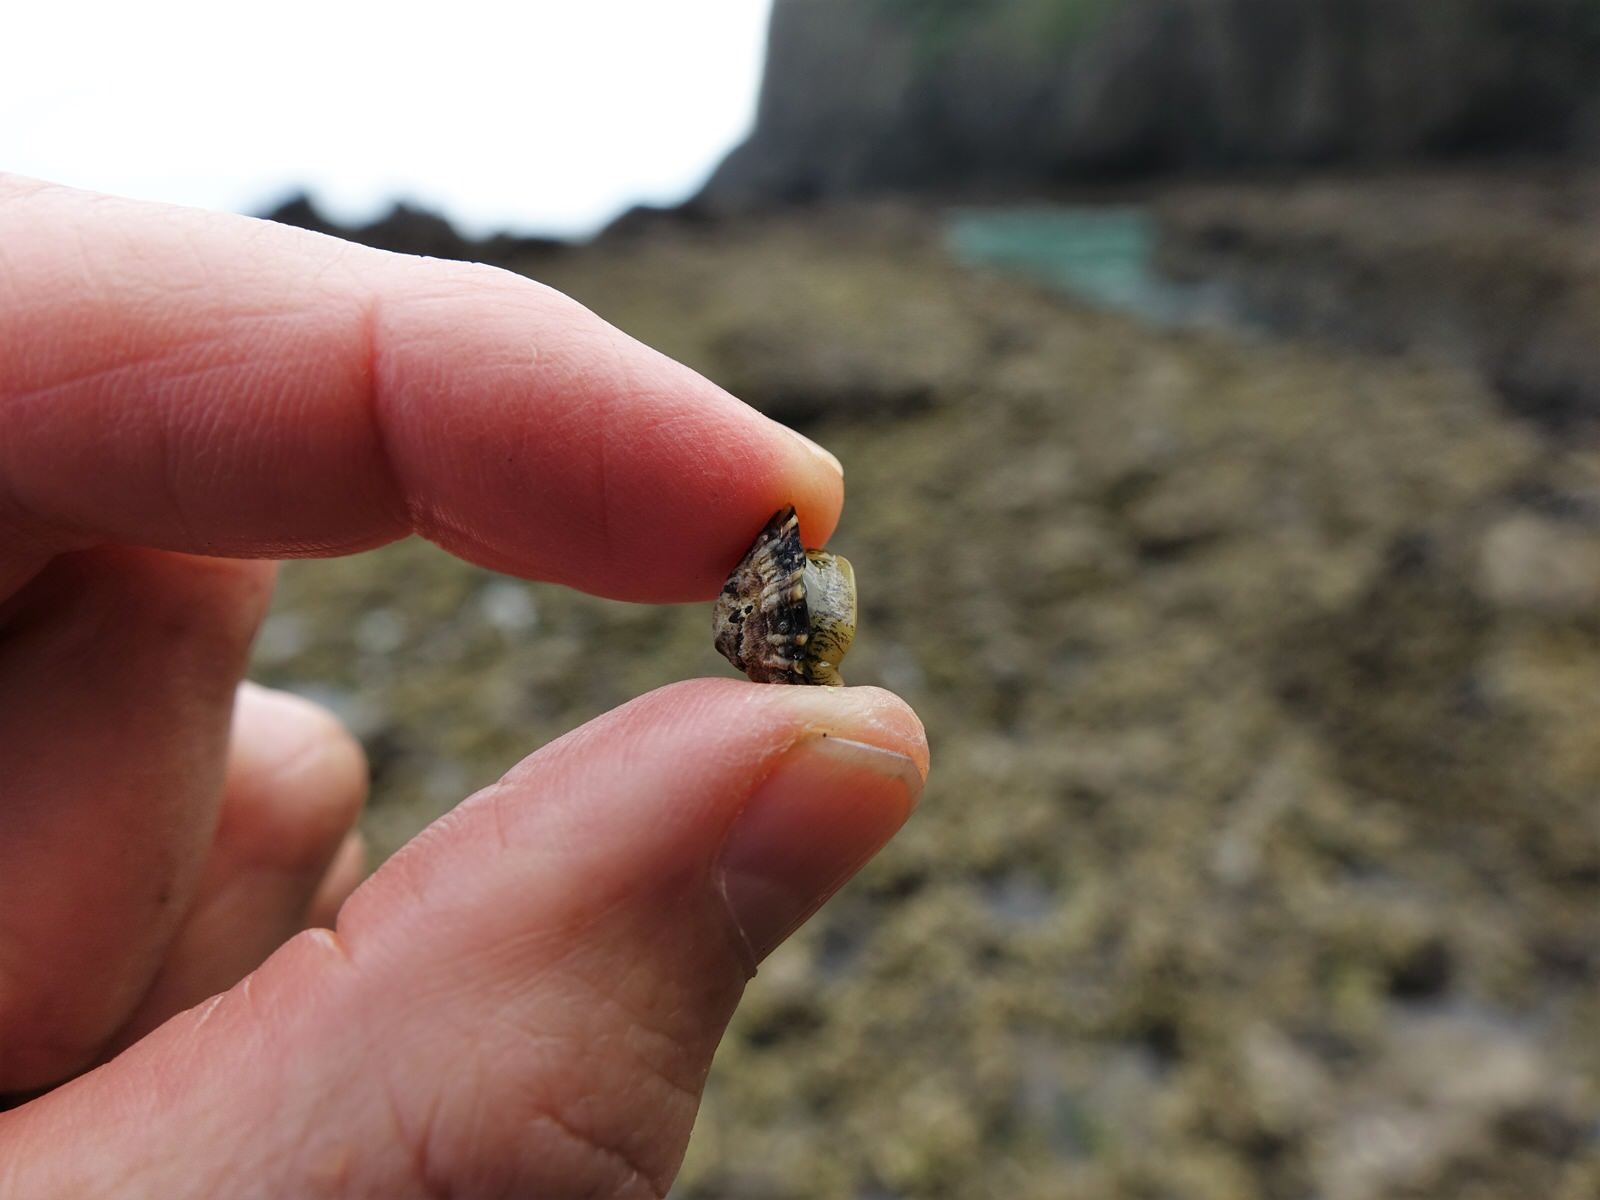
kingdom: Animalia
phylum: Mollusca
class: Gastropoda
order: Siphonariida
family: Siphonariidae
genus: Siphonaria
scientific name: Siphonaria australis
